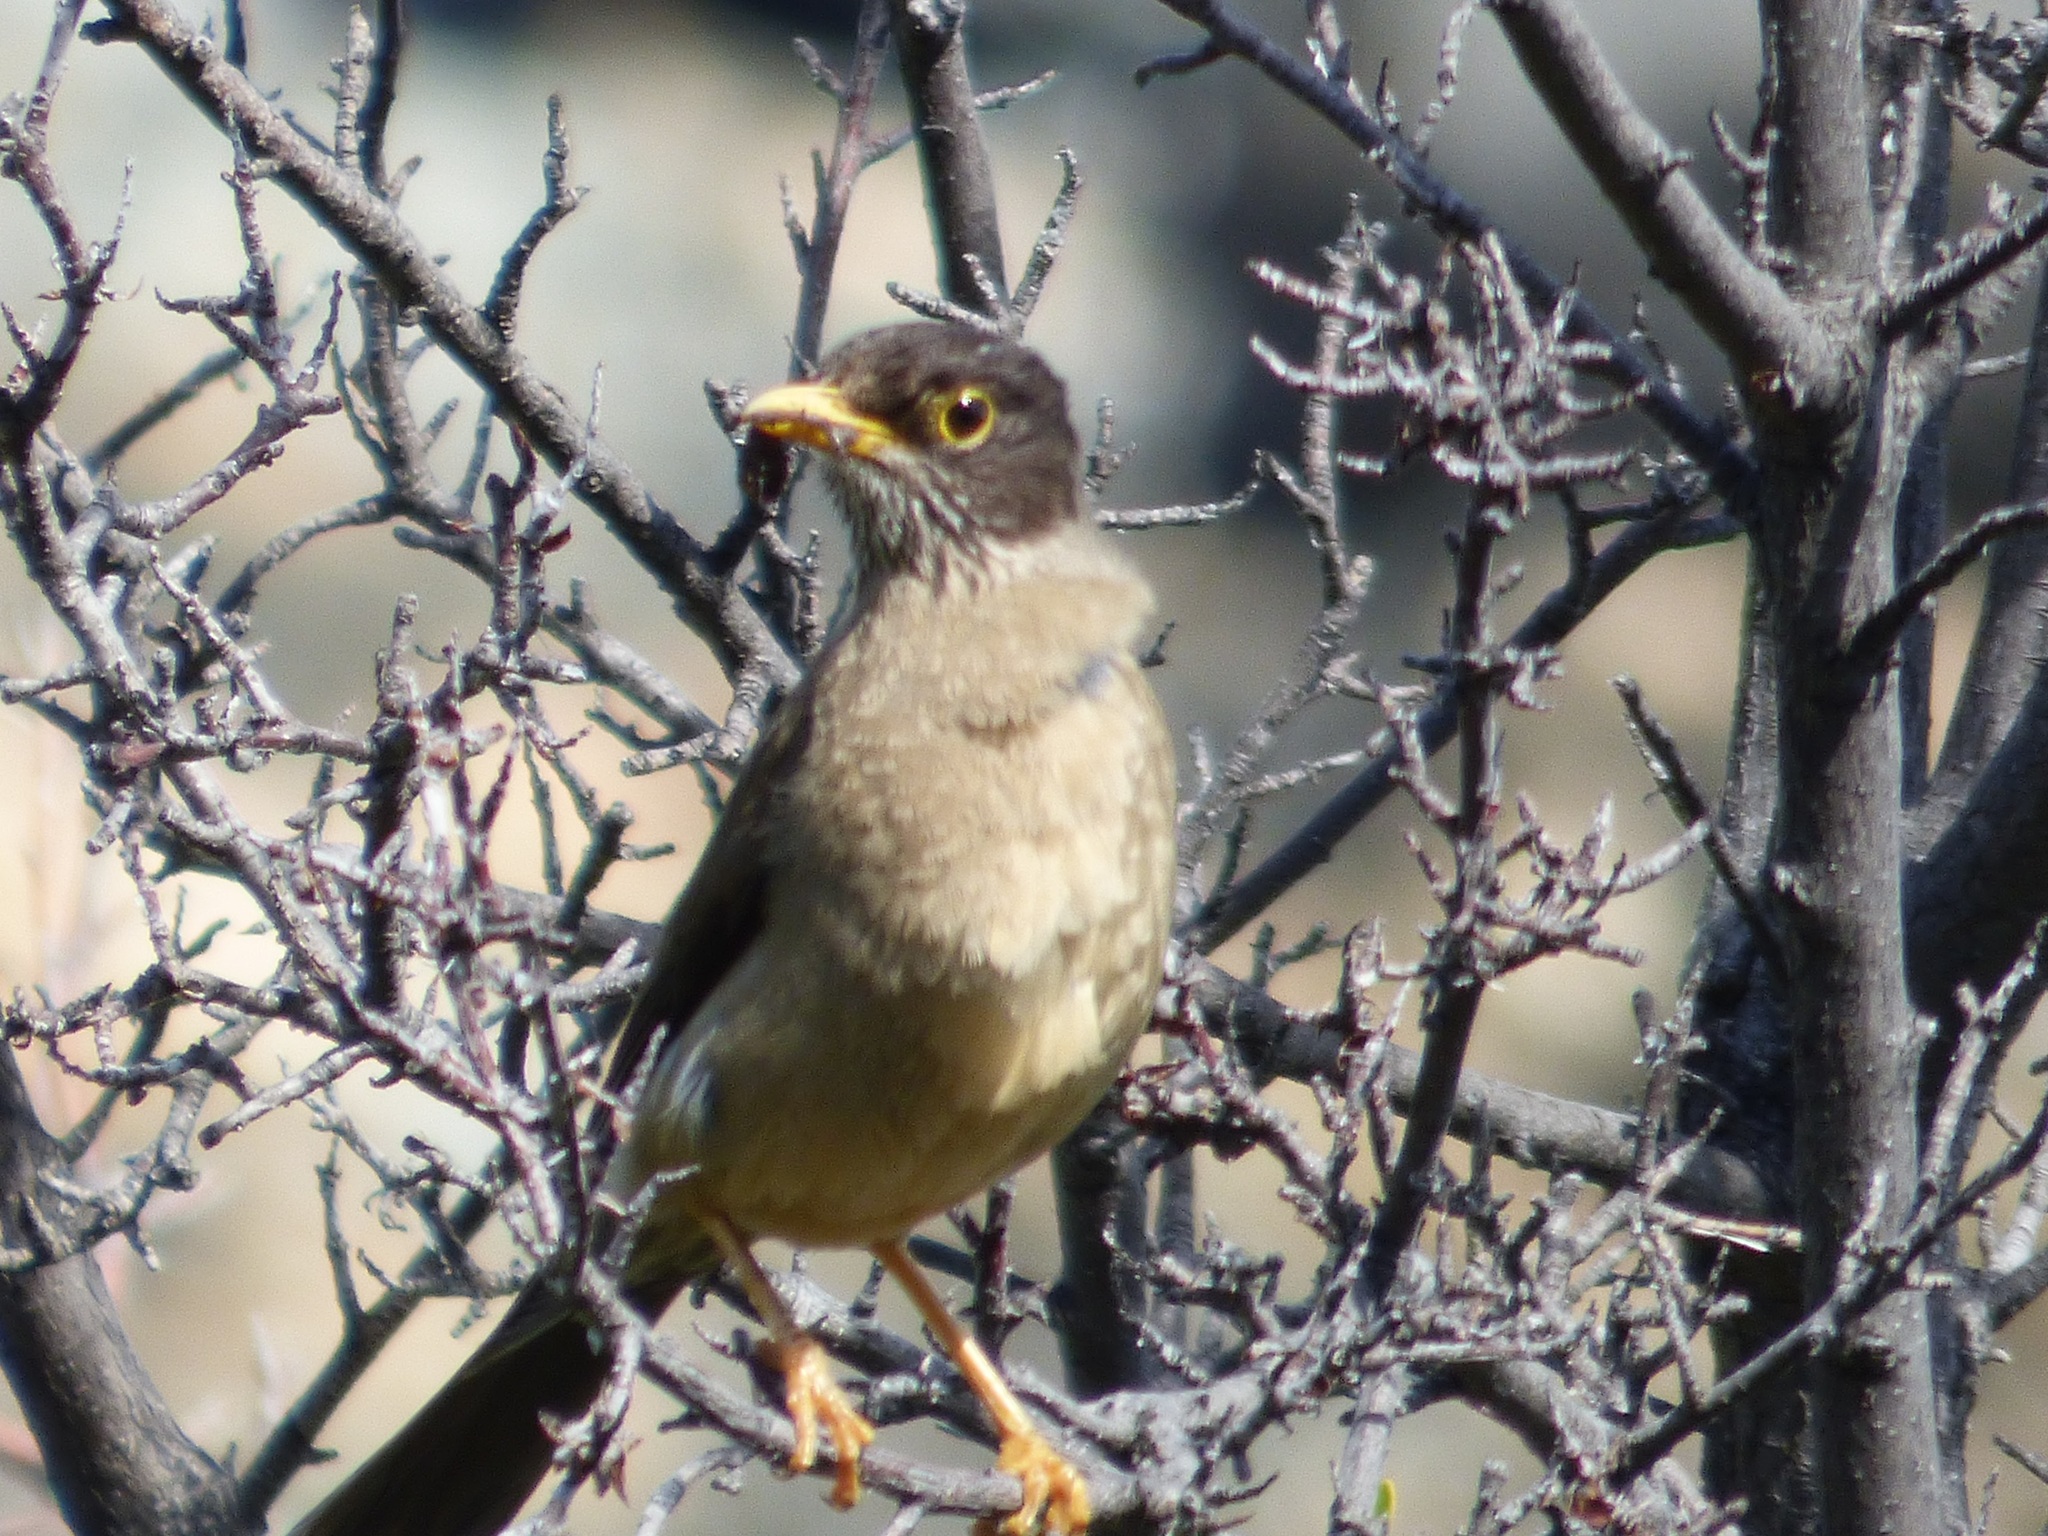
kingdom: Animalia
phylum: Chordata
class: Aves
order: Passeriformes
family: Turdidae
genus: Turdus
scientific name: Turdus falcklandii
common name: Austral thrush
